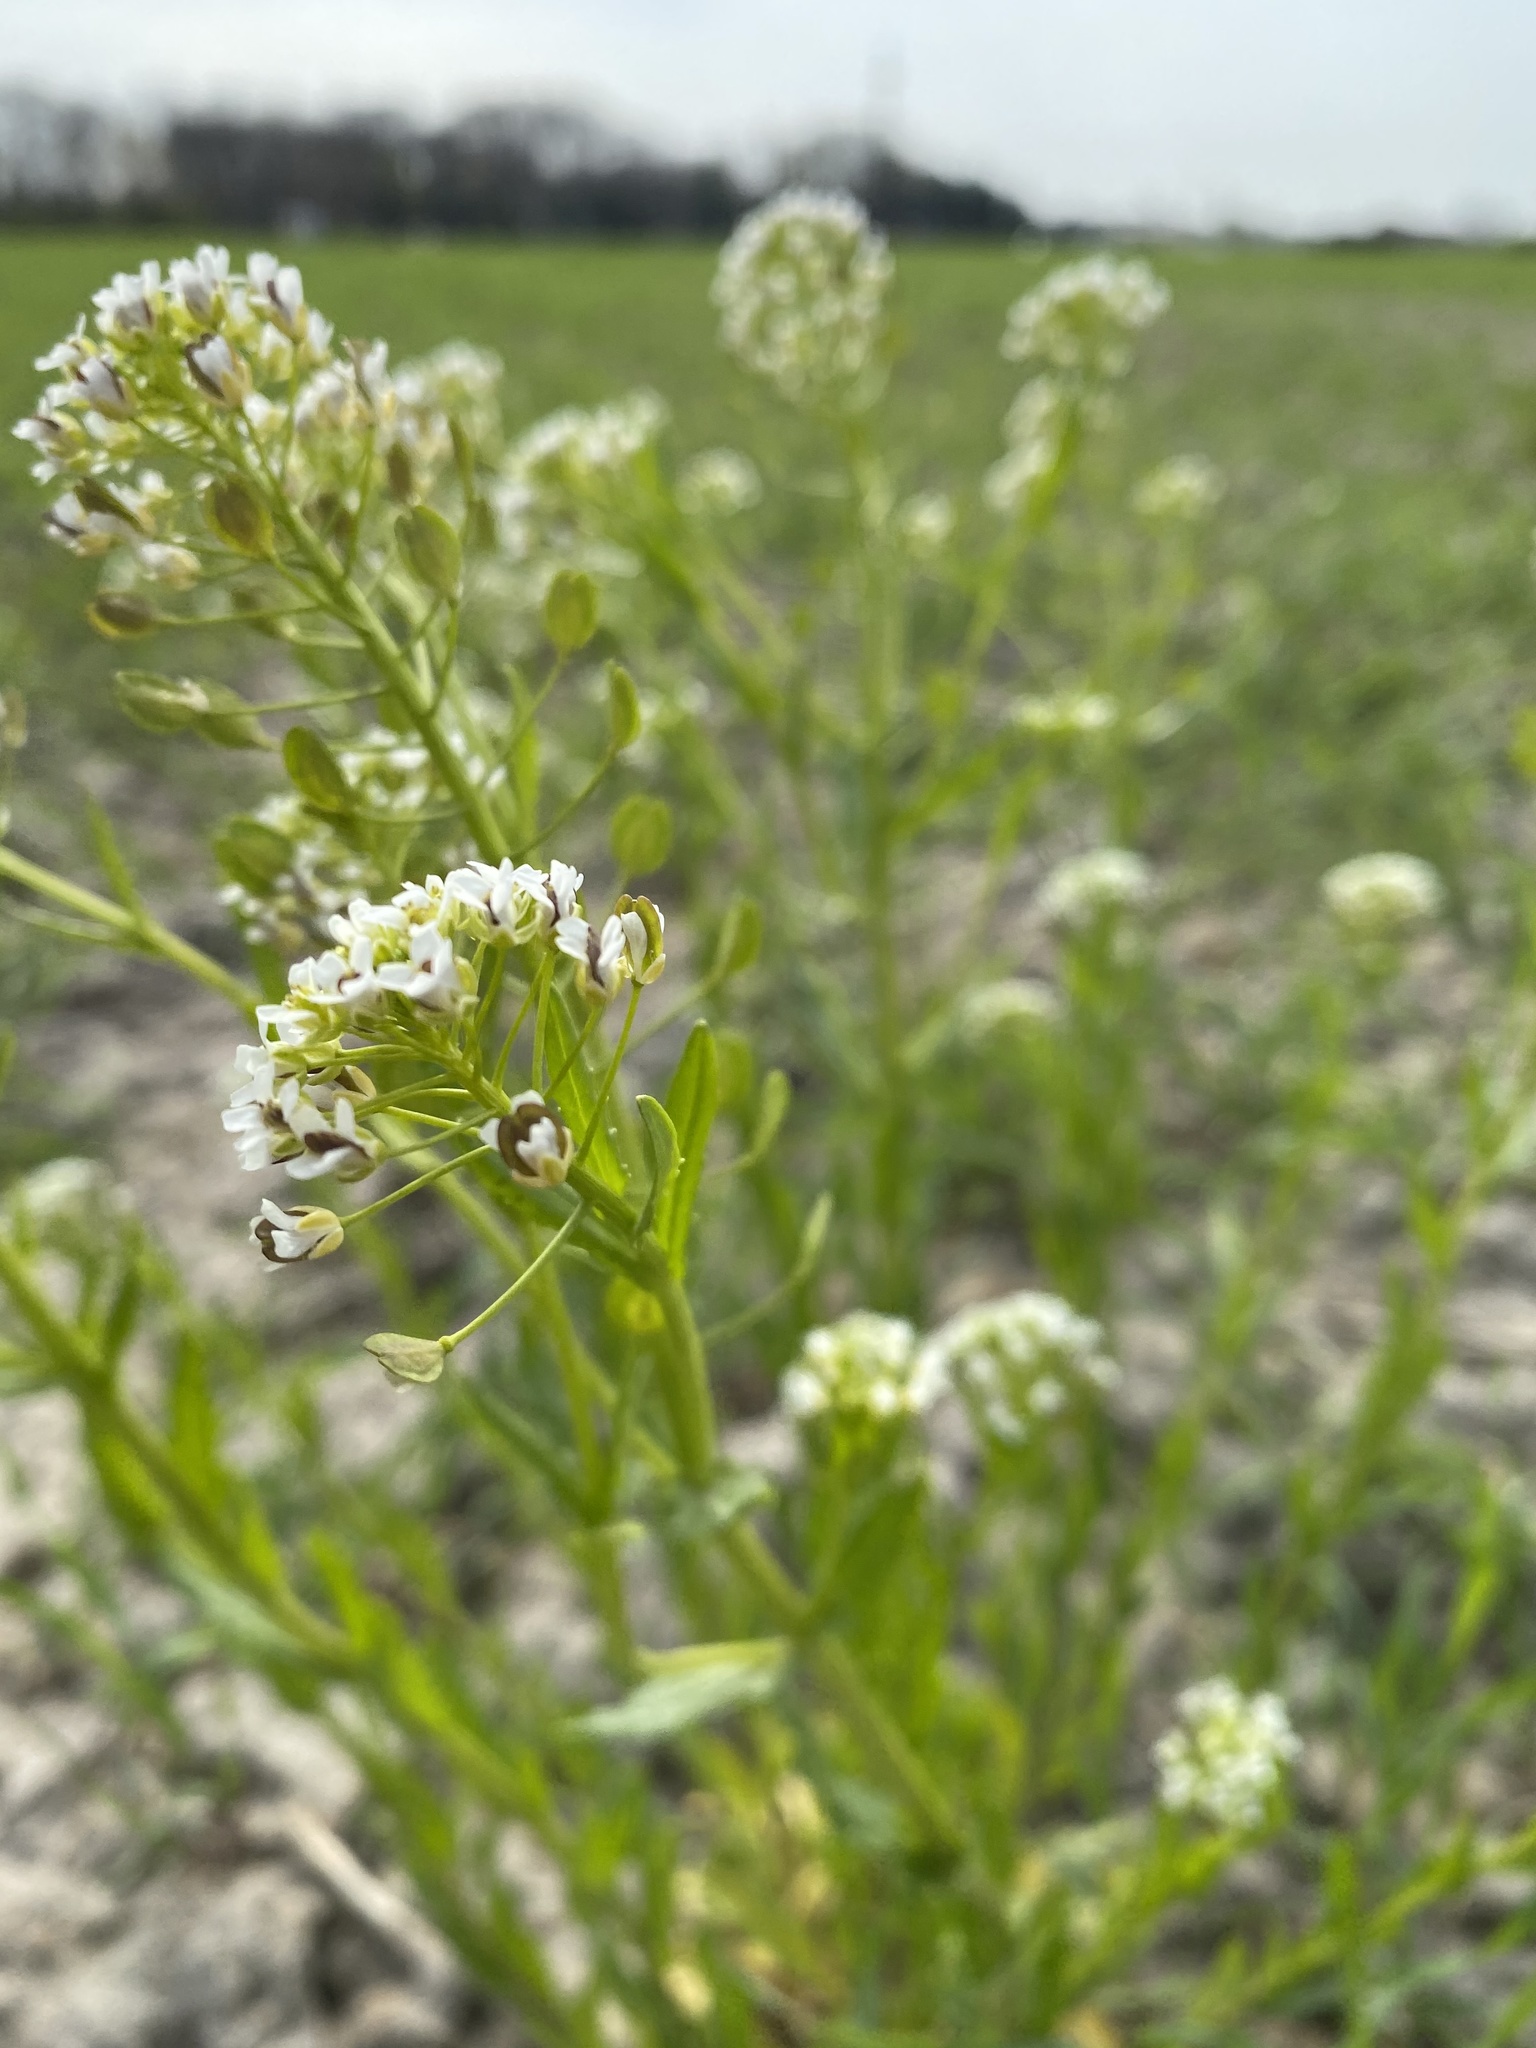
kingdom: Plantae
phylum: Tracheophyta
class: Magnoliopsida
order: Brassicales
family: Brassicaceae
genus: Thlaspi
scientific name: Thlaspi arvense
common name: Field pennycress
